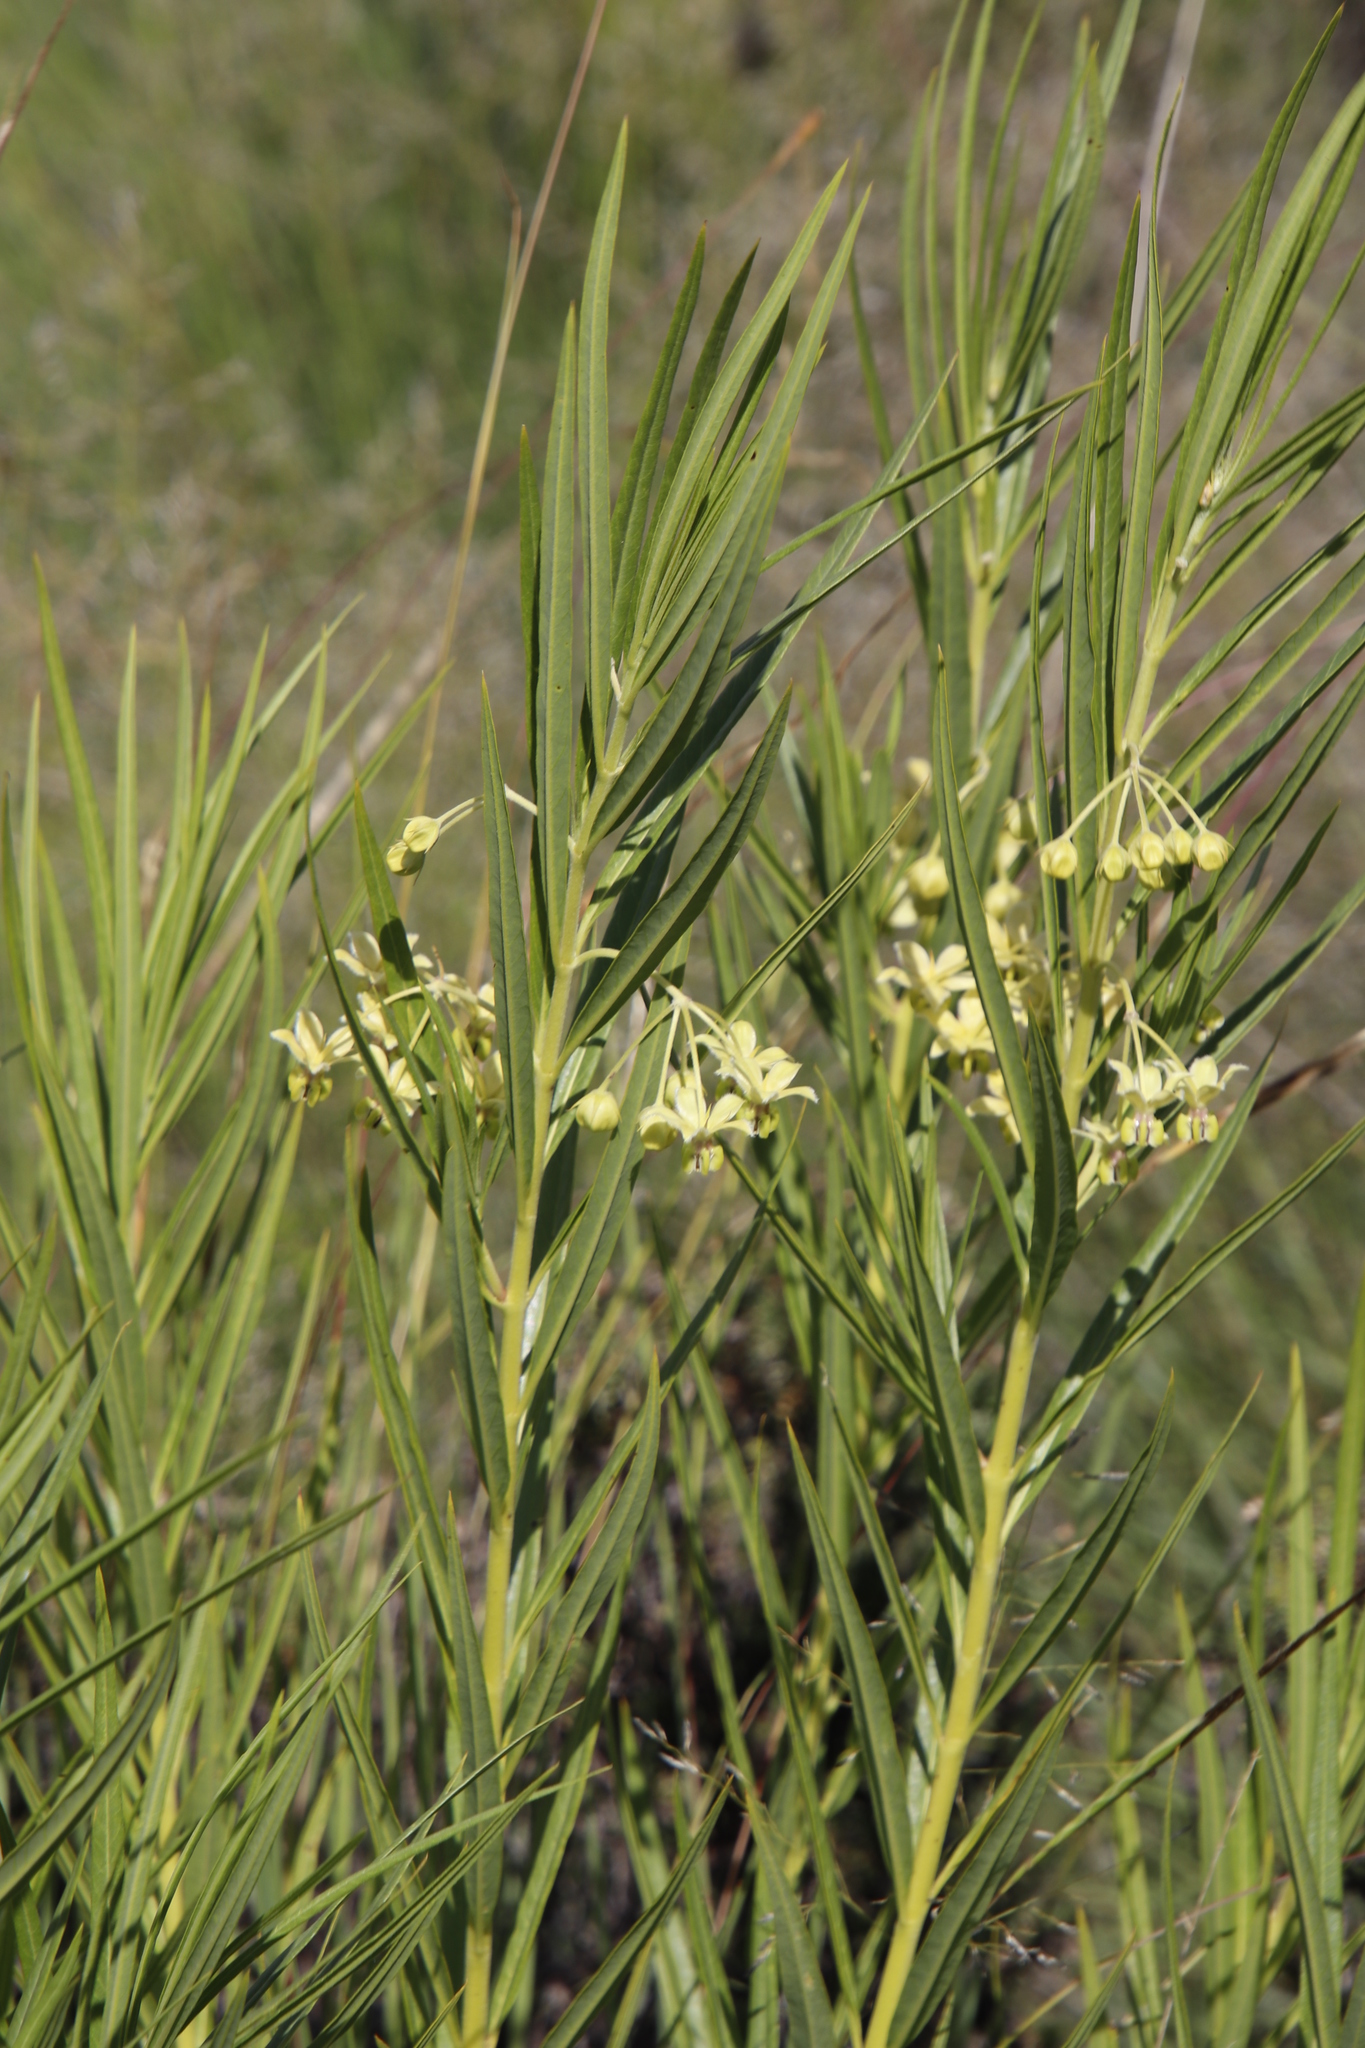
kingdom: Plantae
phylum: Tracheophyta
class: Magnoliopsida
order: Gentianales
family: Apocynaceae
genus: Gomphocarpus
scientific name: Gomphocarpus fruticosus
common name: Milkweed
